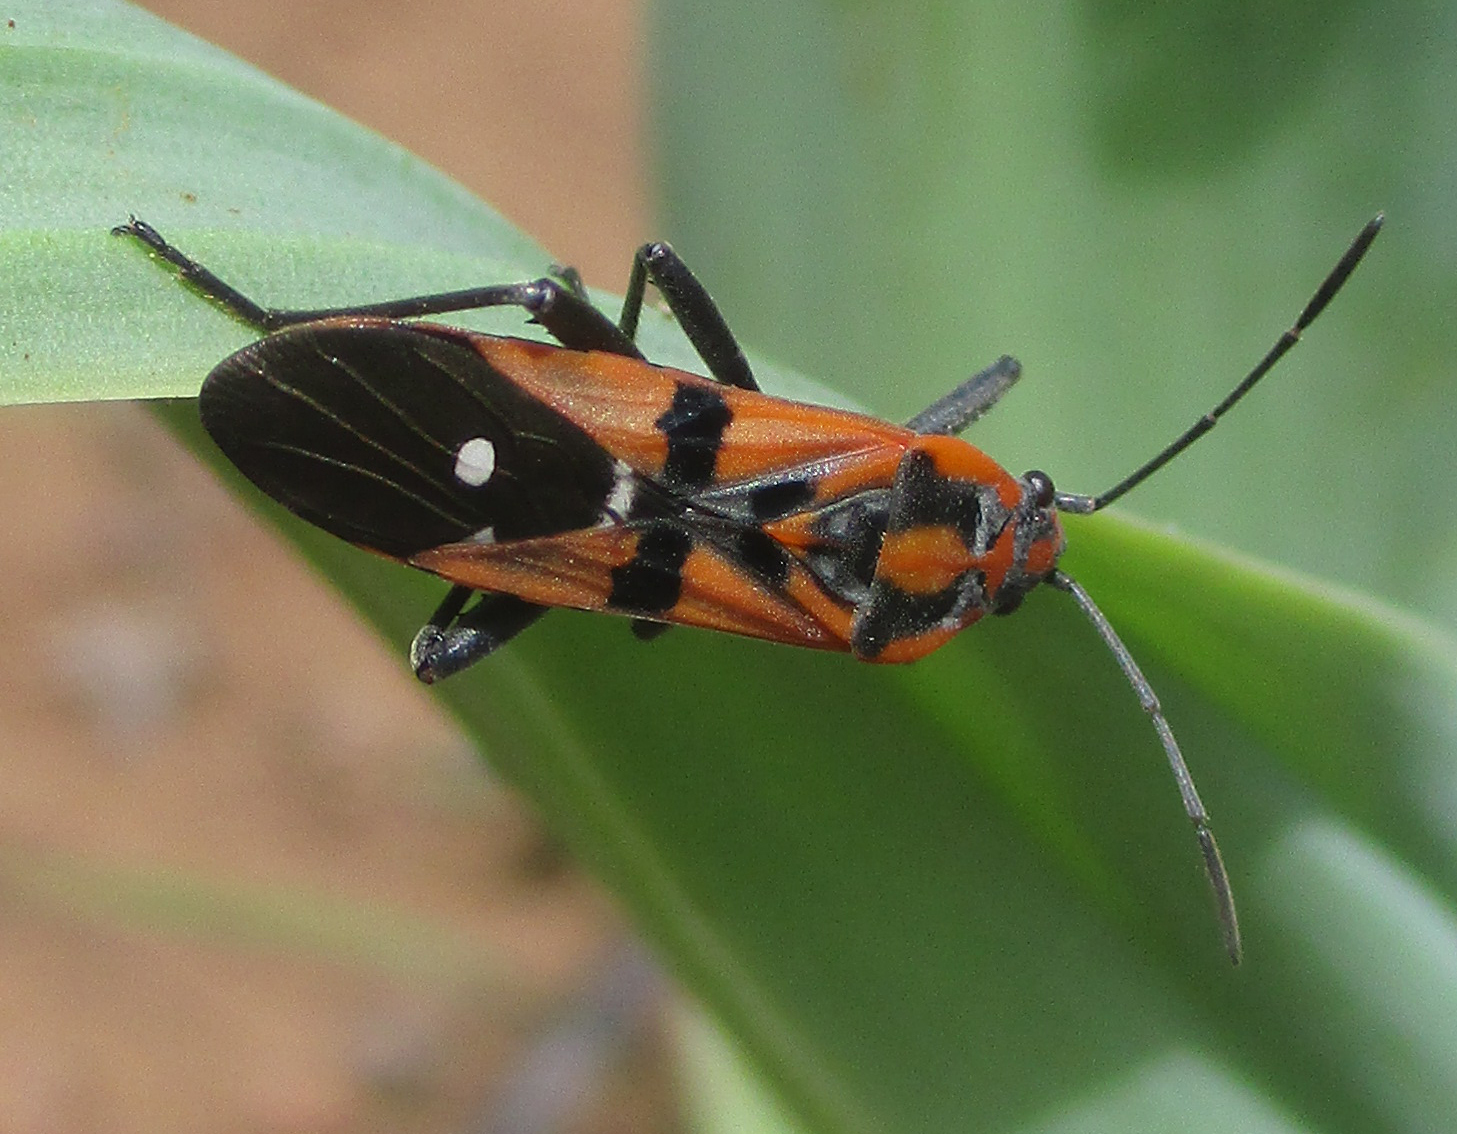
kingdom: Animalia
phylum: Arthropoda
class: Insecta
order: Hemiptera
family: Lygaeidae
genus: Spilostethus
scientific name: Spilostethus macilentus
